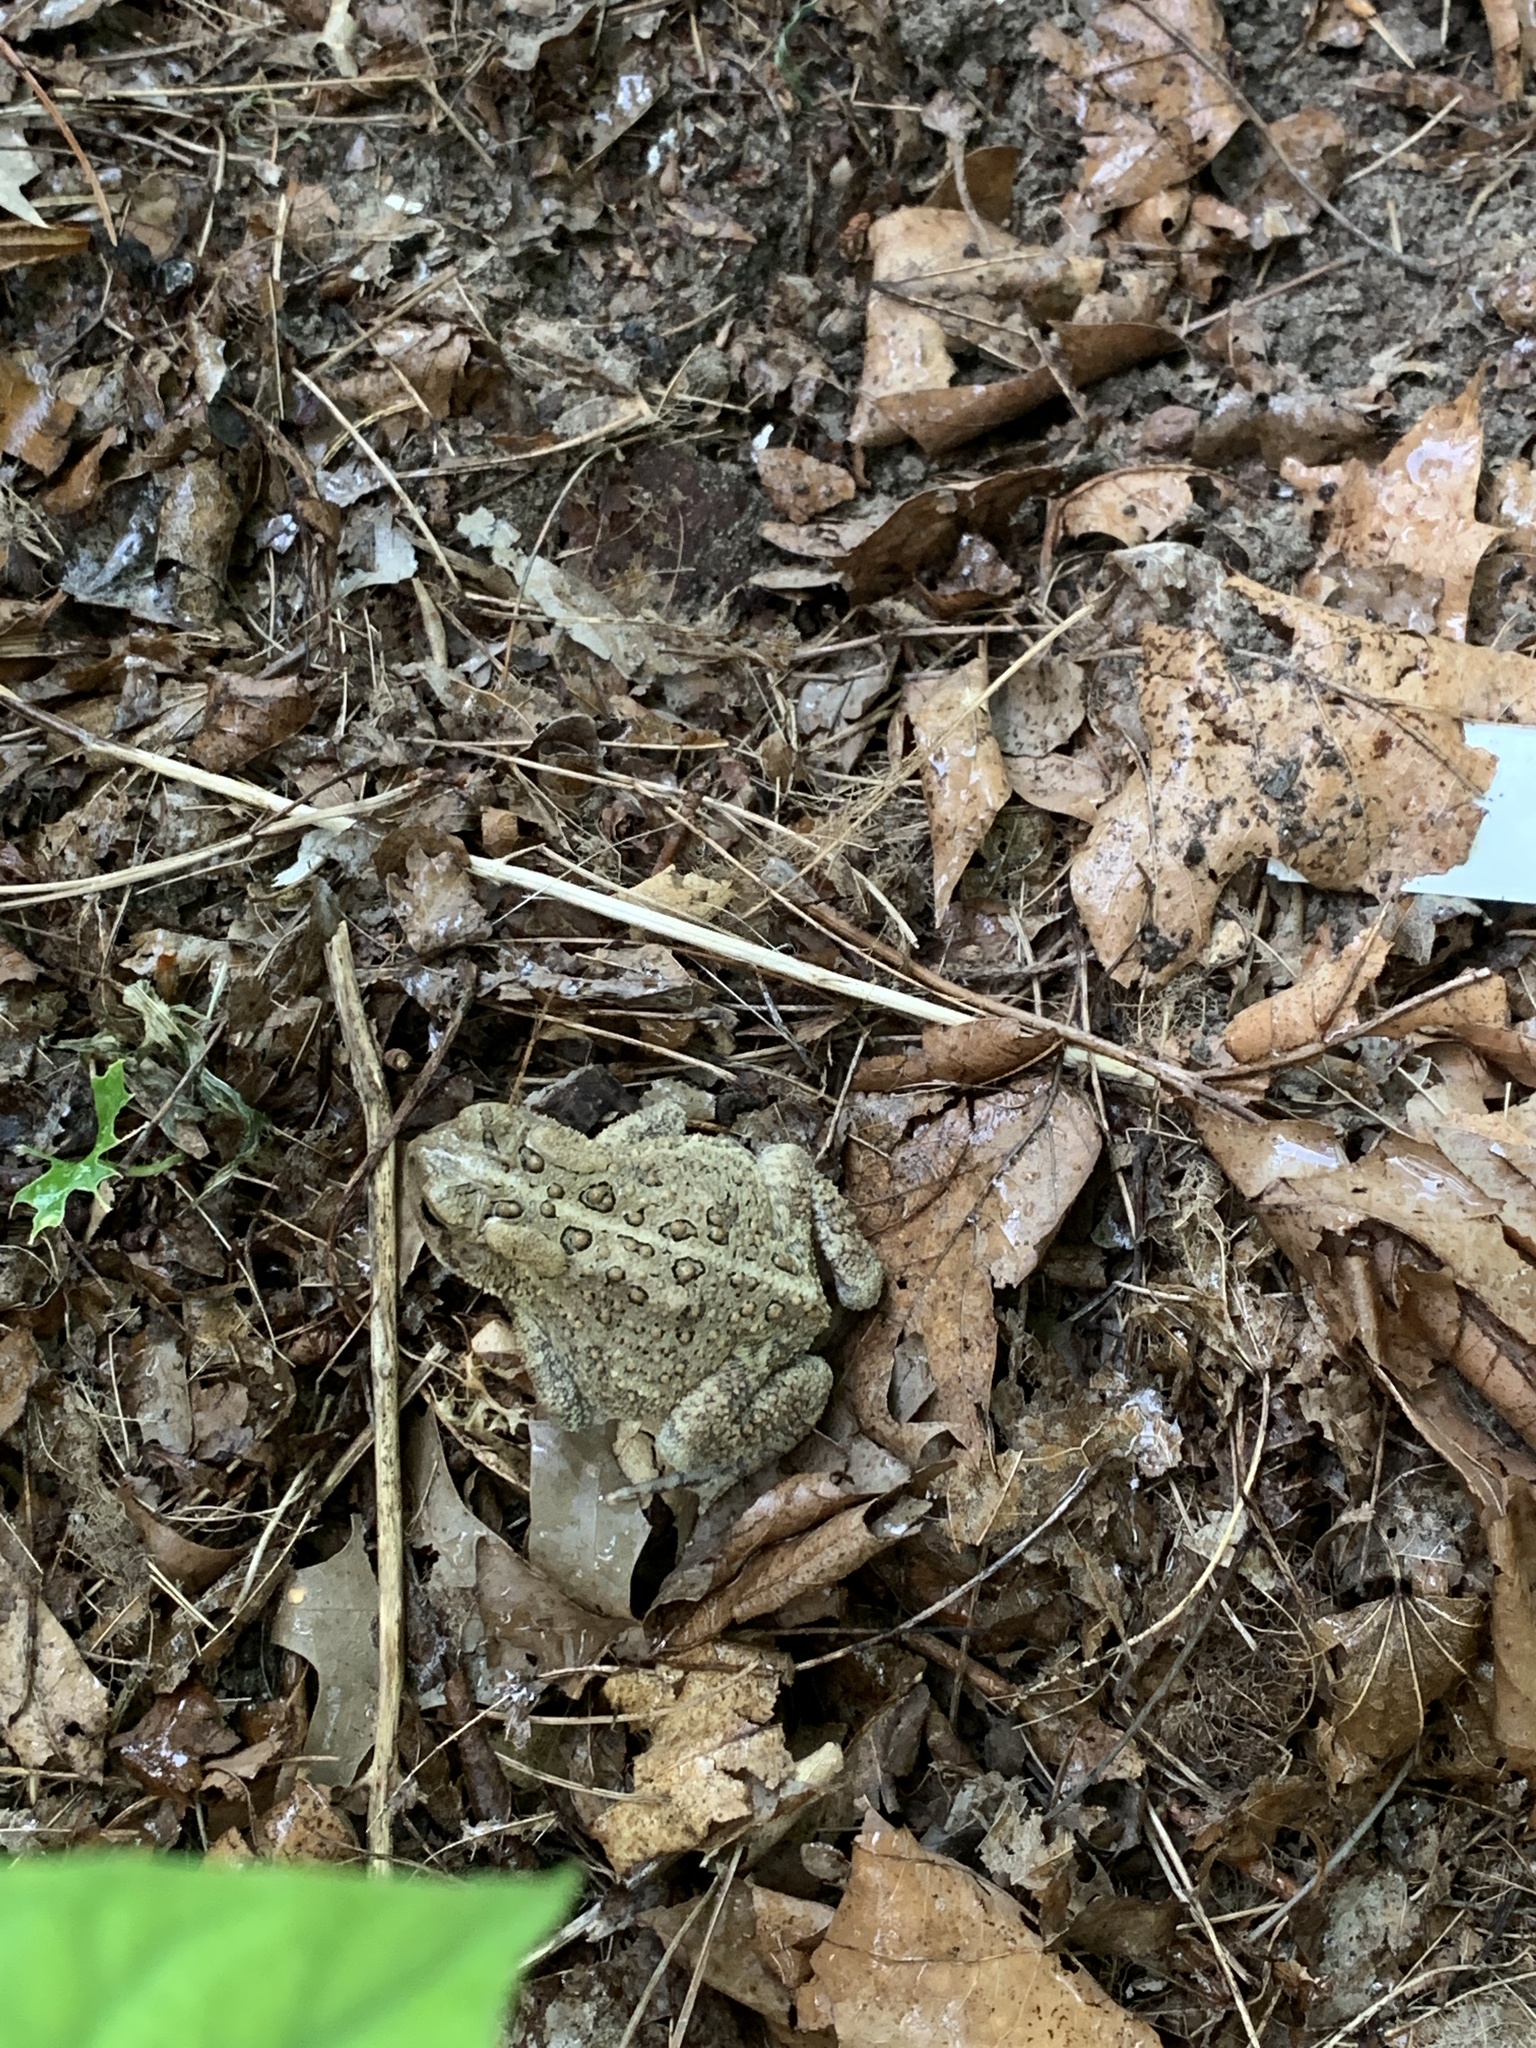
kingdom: Animalia
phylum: Chordata
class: Amphibia
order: Anura
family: Bufonidae
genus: Anaxyrus
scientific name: Anaxyrus americanus
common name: American toad
